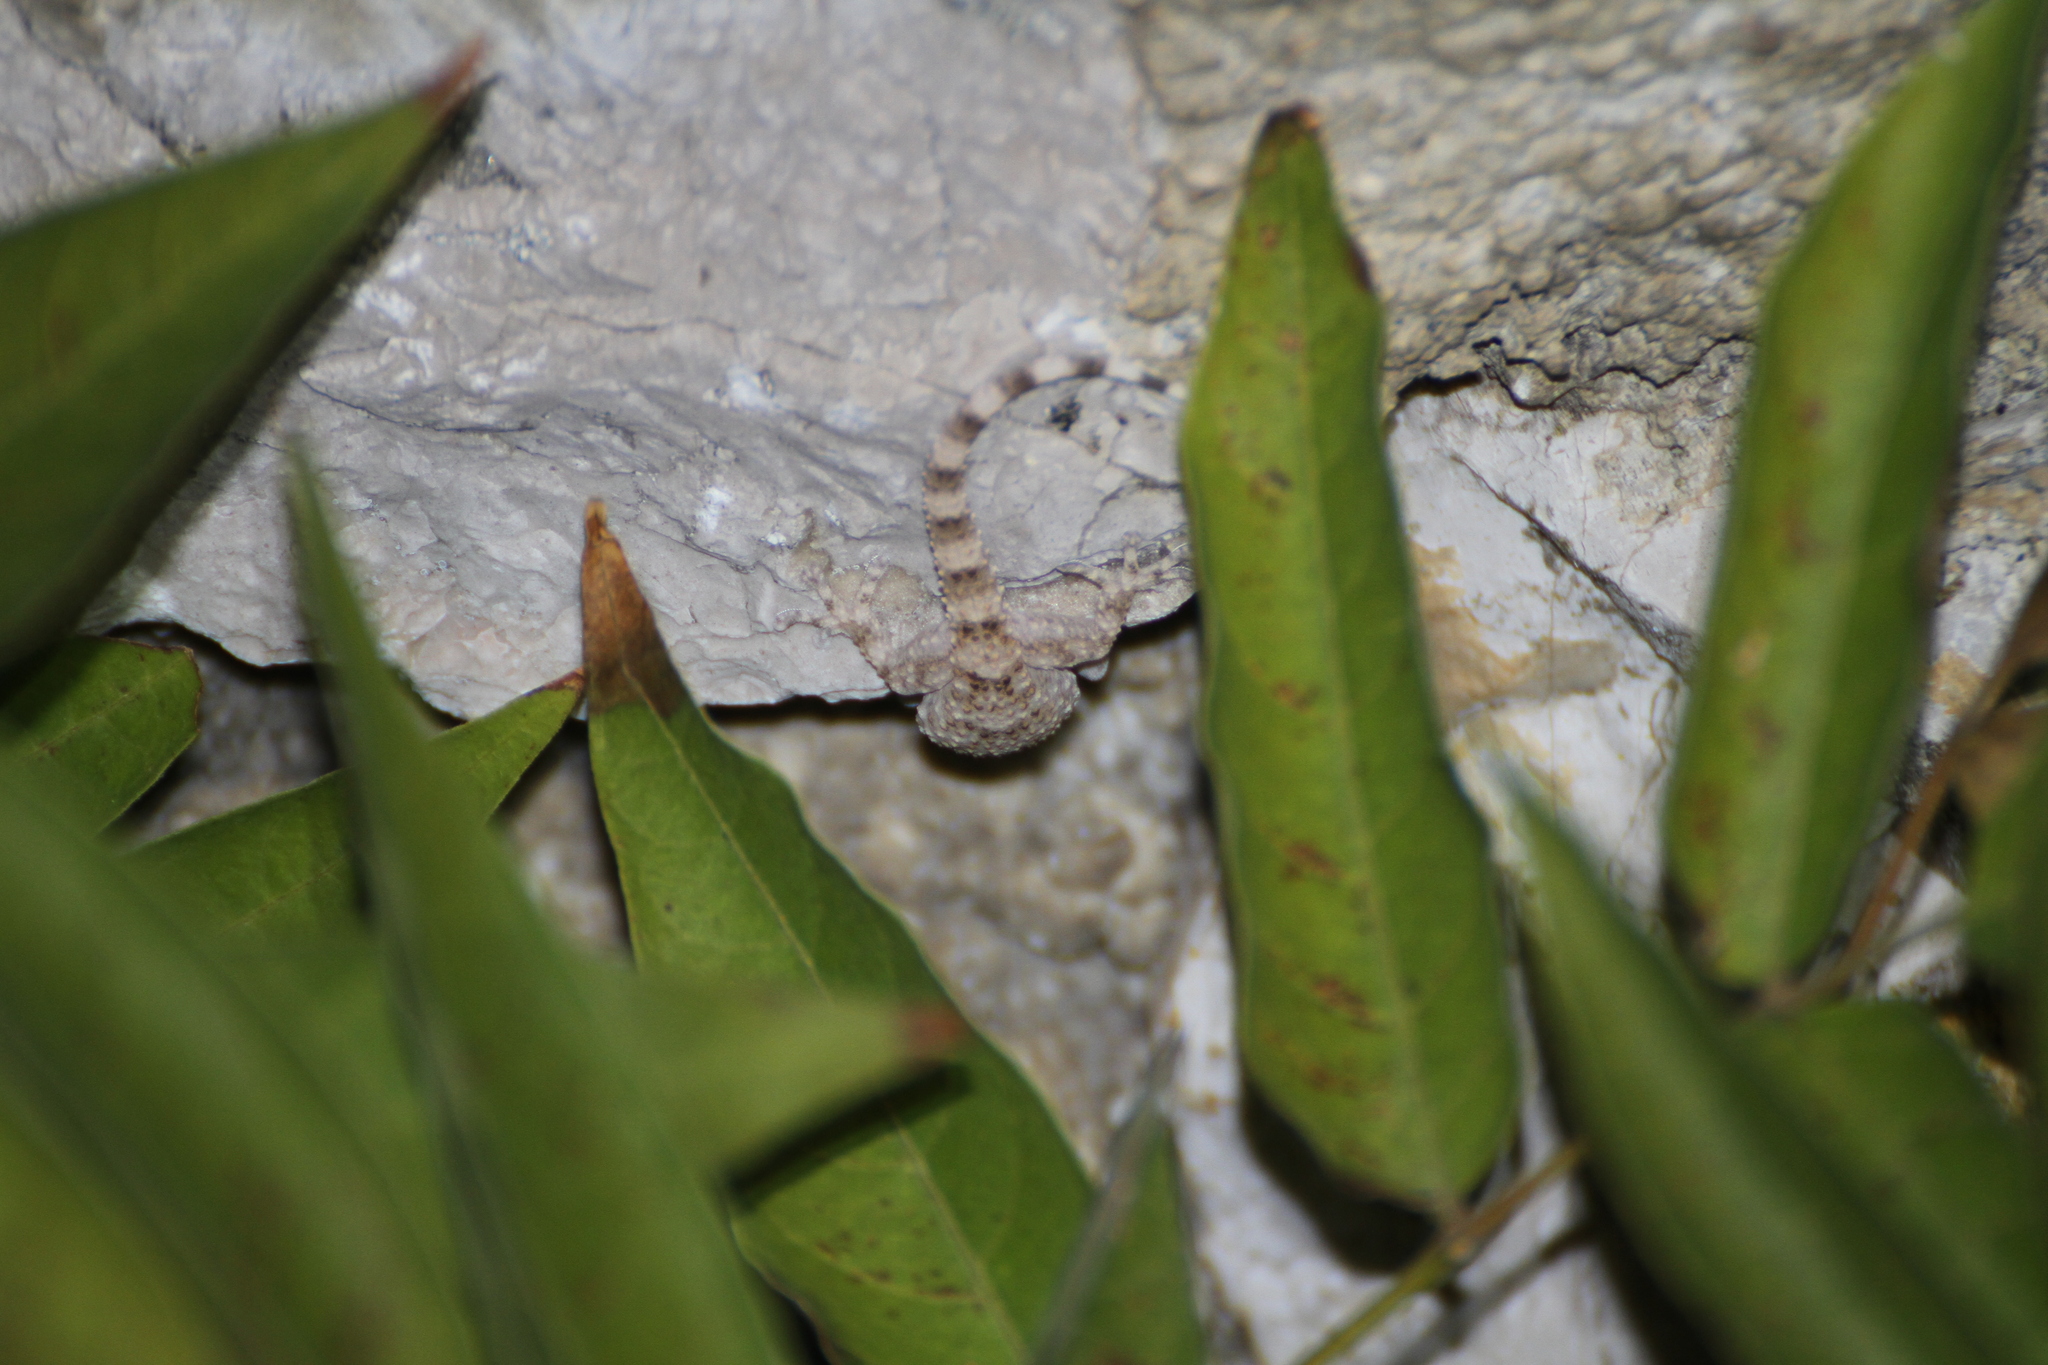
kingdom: Animalia
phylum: Chordata
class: Squamata
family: Phyllodactylidae
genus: Tarentola
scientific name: Tarentola mauritanica
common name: Moorish gecko
